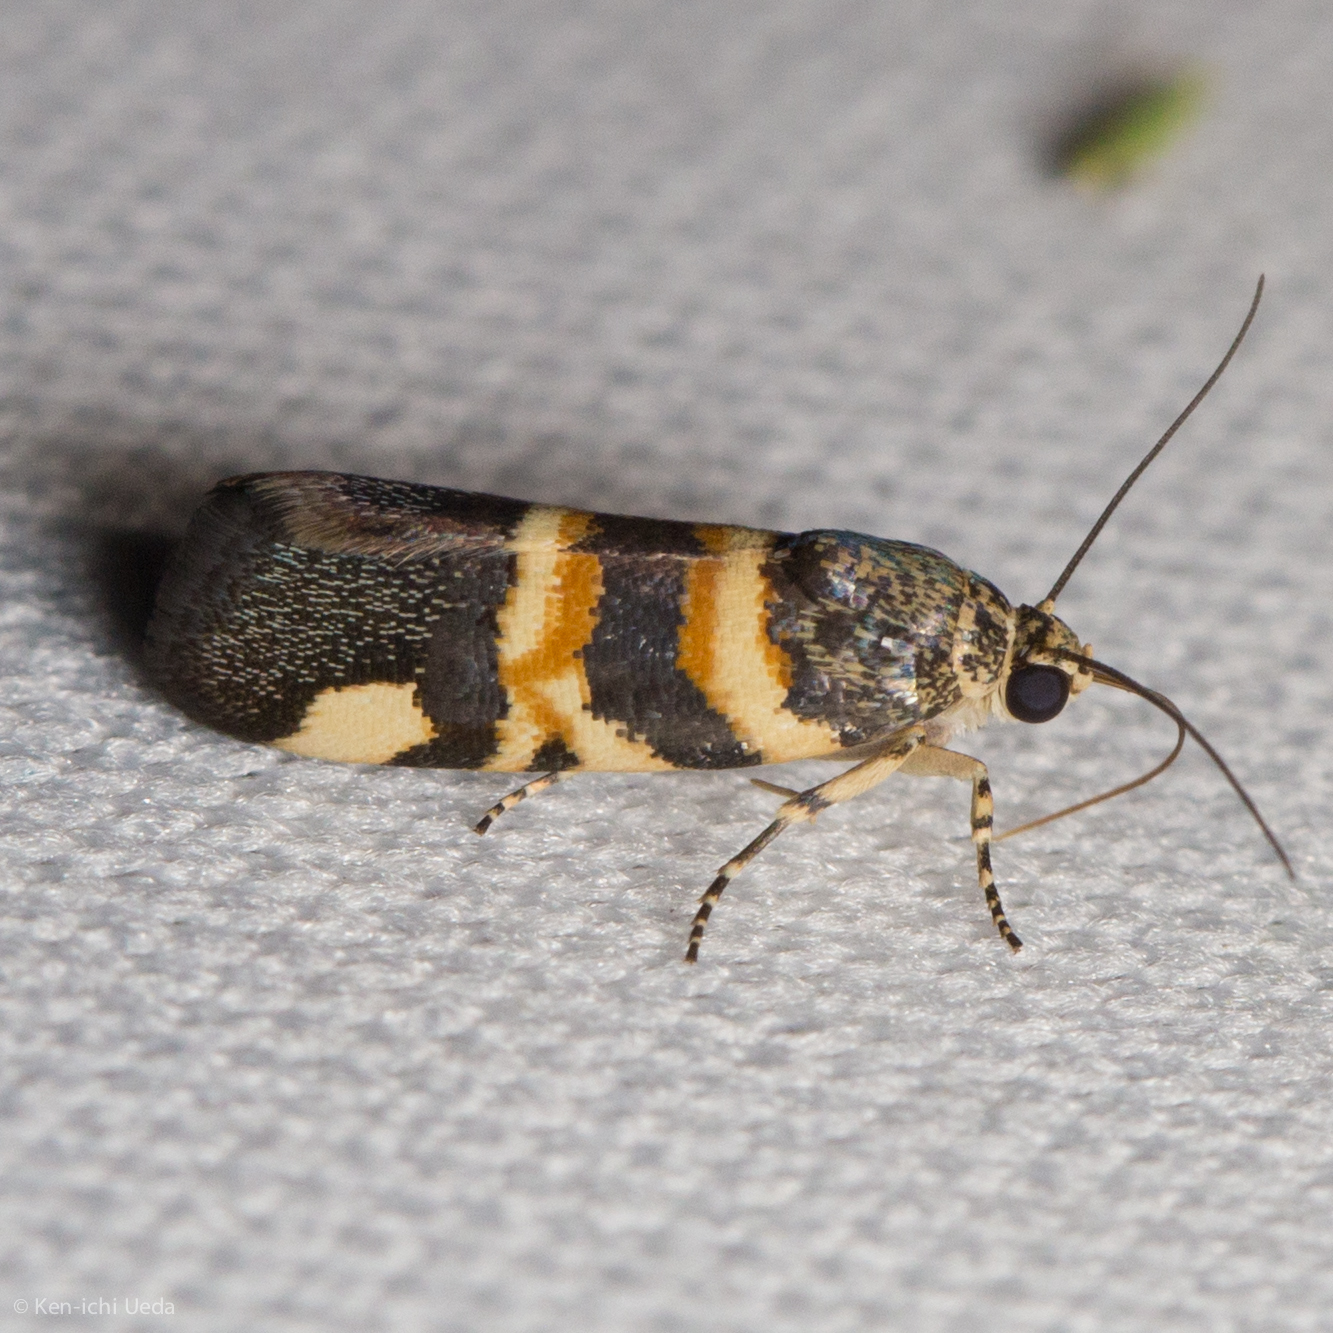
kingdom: Animalia
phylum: Arthropoda
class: Insecta
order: Lepidoptera
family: Noctuidae
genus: Spragueia
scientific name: Spragueia funeralis
